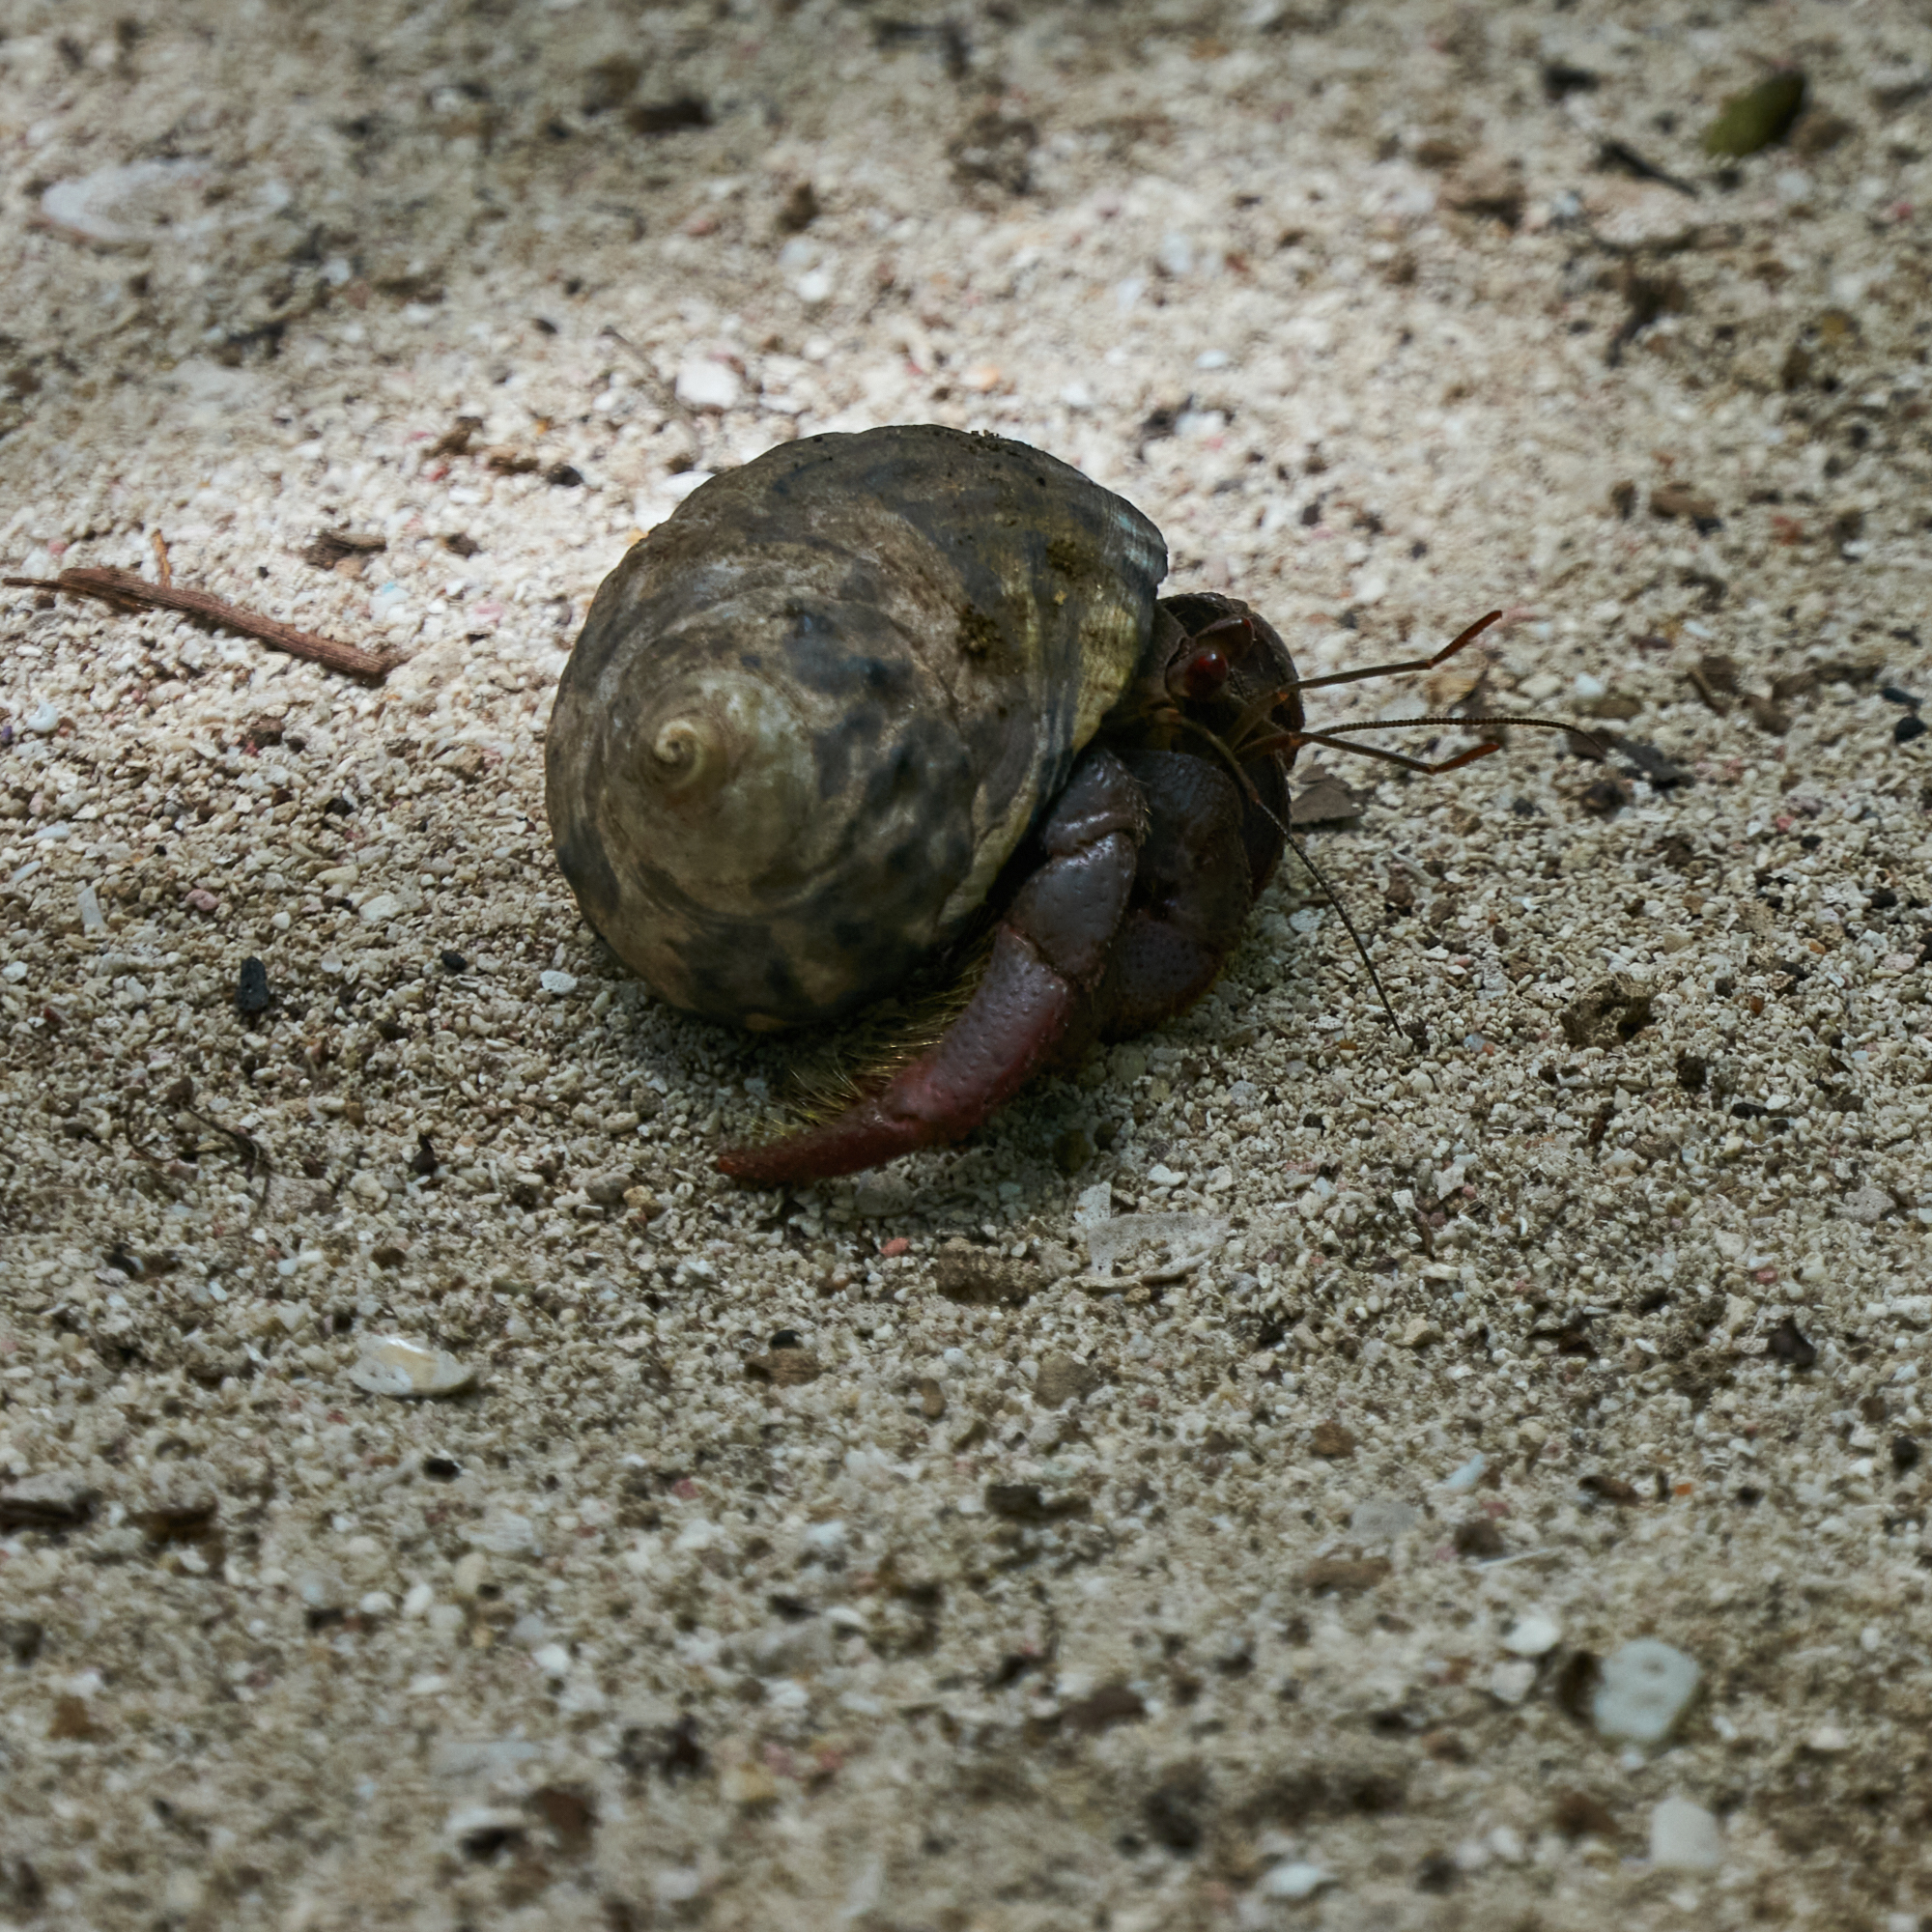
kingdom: Animalia
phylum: Arthropoda
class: Malacostraca
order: Decapoda
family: Coenobitidae
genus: Coenobita
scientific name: Coenobita clypeatus
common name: Caribbean hermit crab
